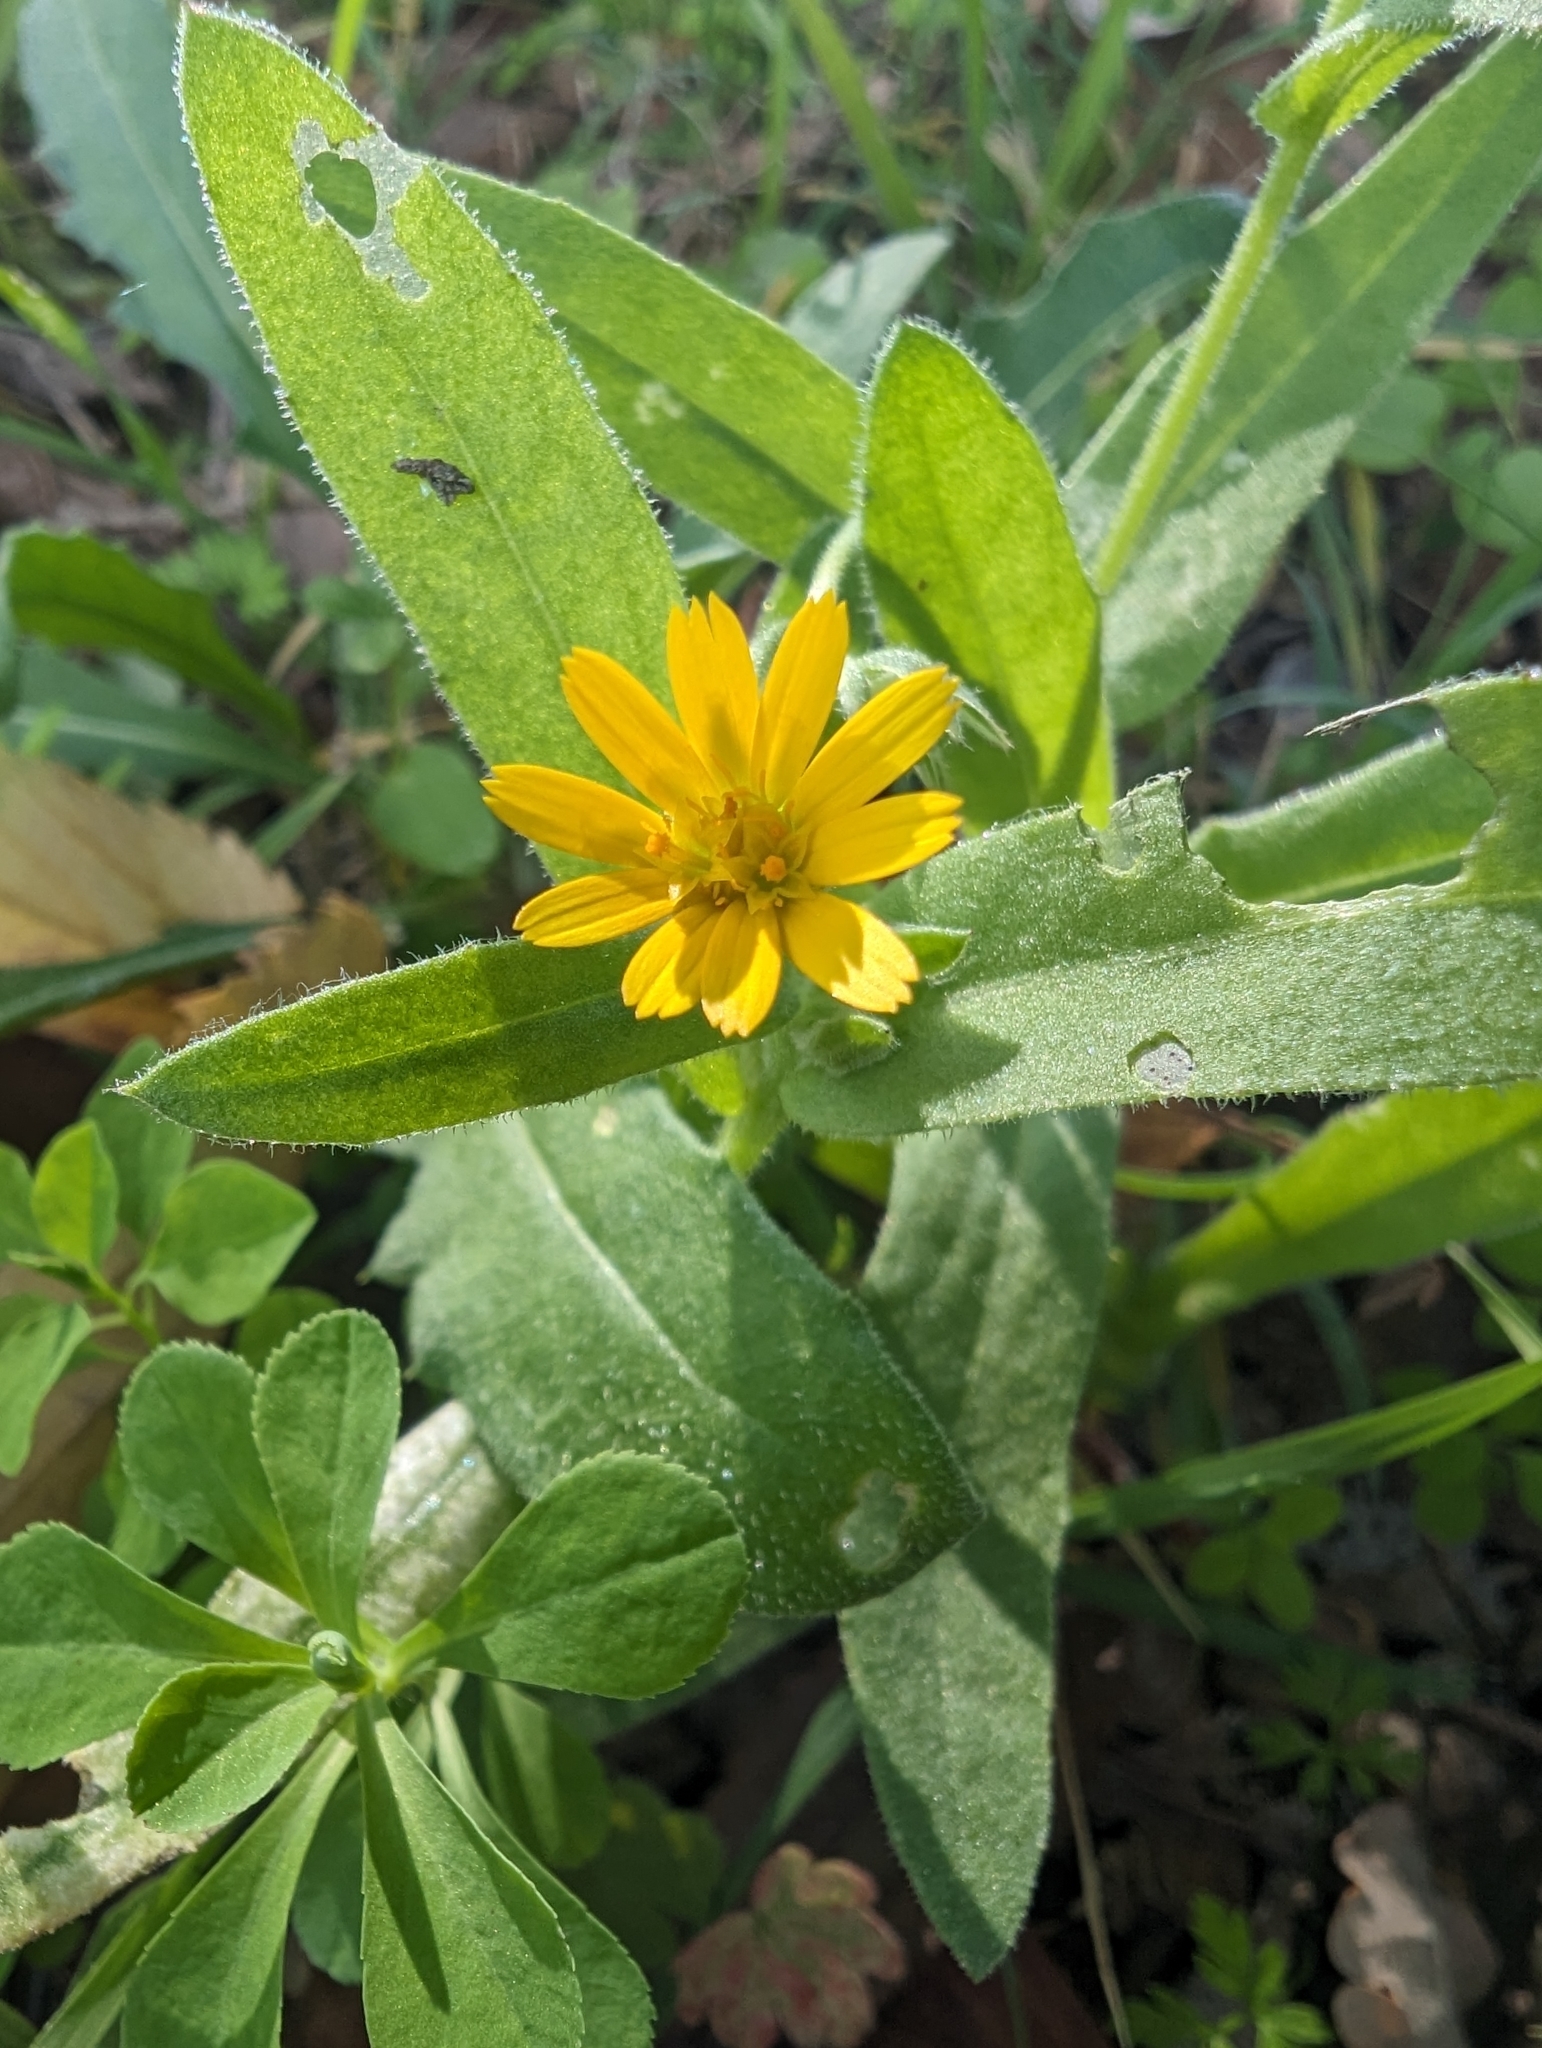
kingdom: Plantae
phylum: Tracheophyta
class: Magnoliopsida
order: Asterales
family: Asteraceae
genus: Calendula
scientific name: Calendula arvensis
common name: Field marigold
